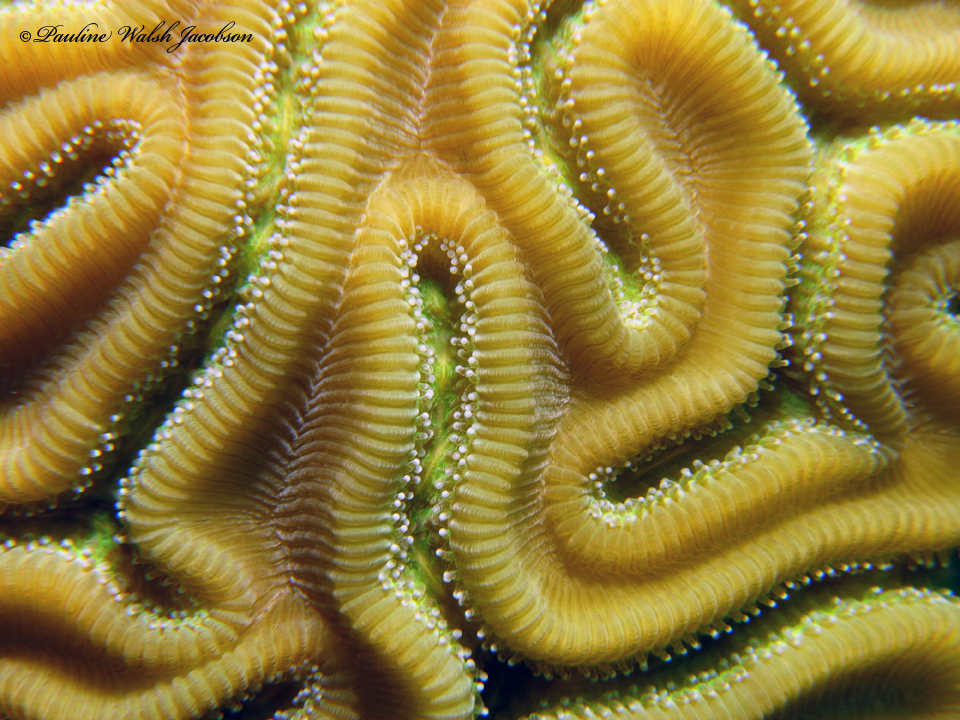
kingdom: Animalia
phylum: Cnidaria
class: Anthozoa
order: Scleractinia
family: Faviidae
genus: Diploria
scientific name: Diploria labyrinthiformis
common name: Grooved brain coral
